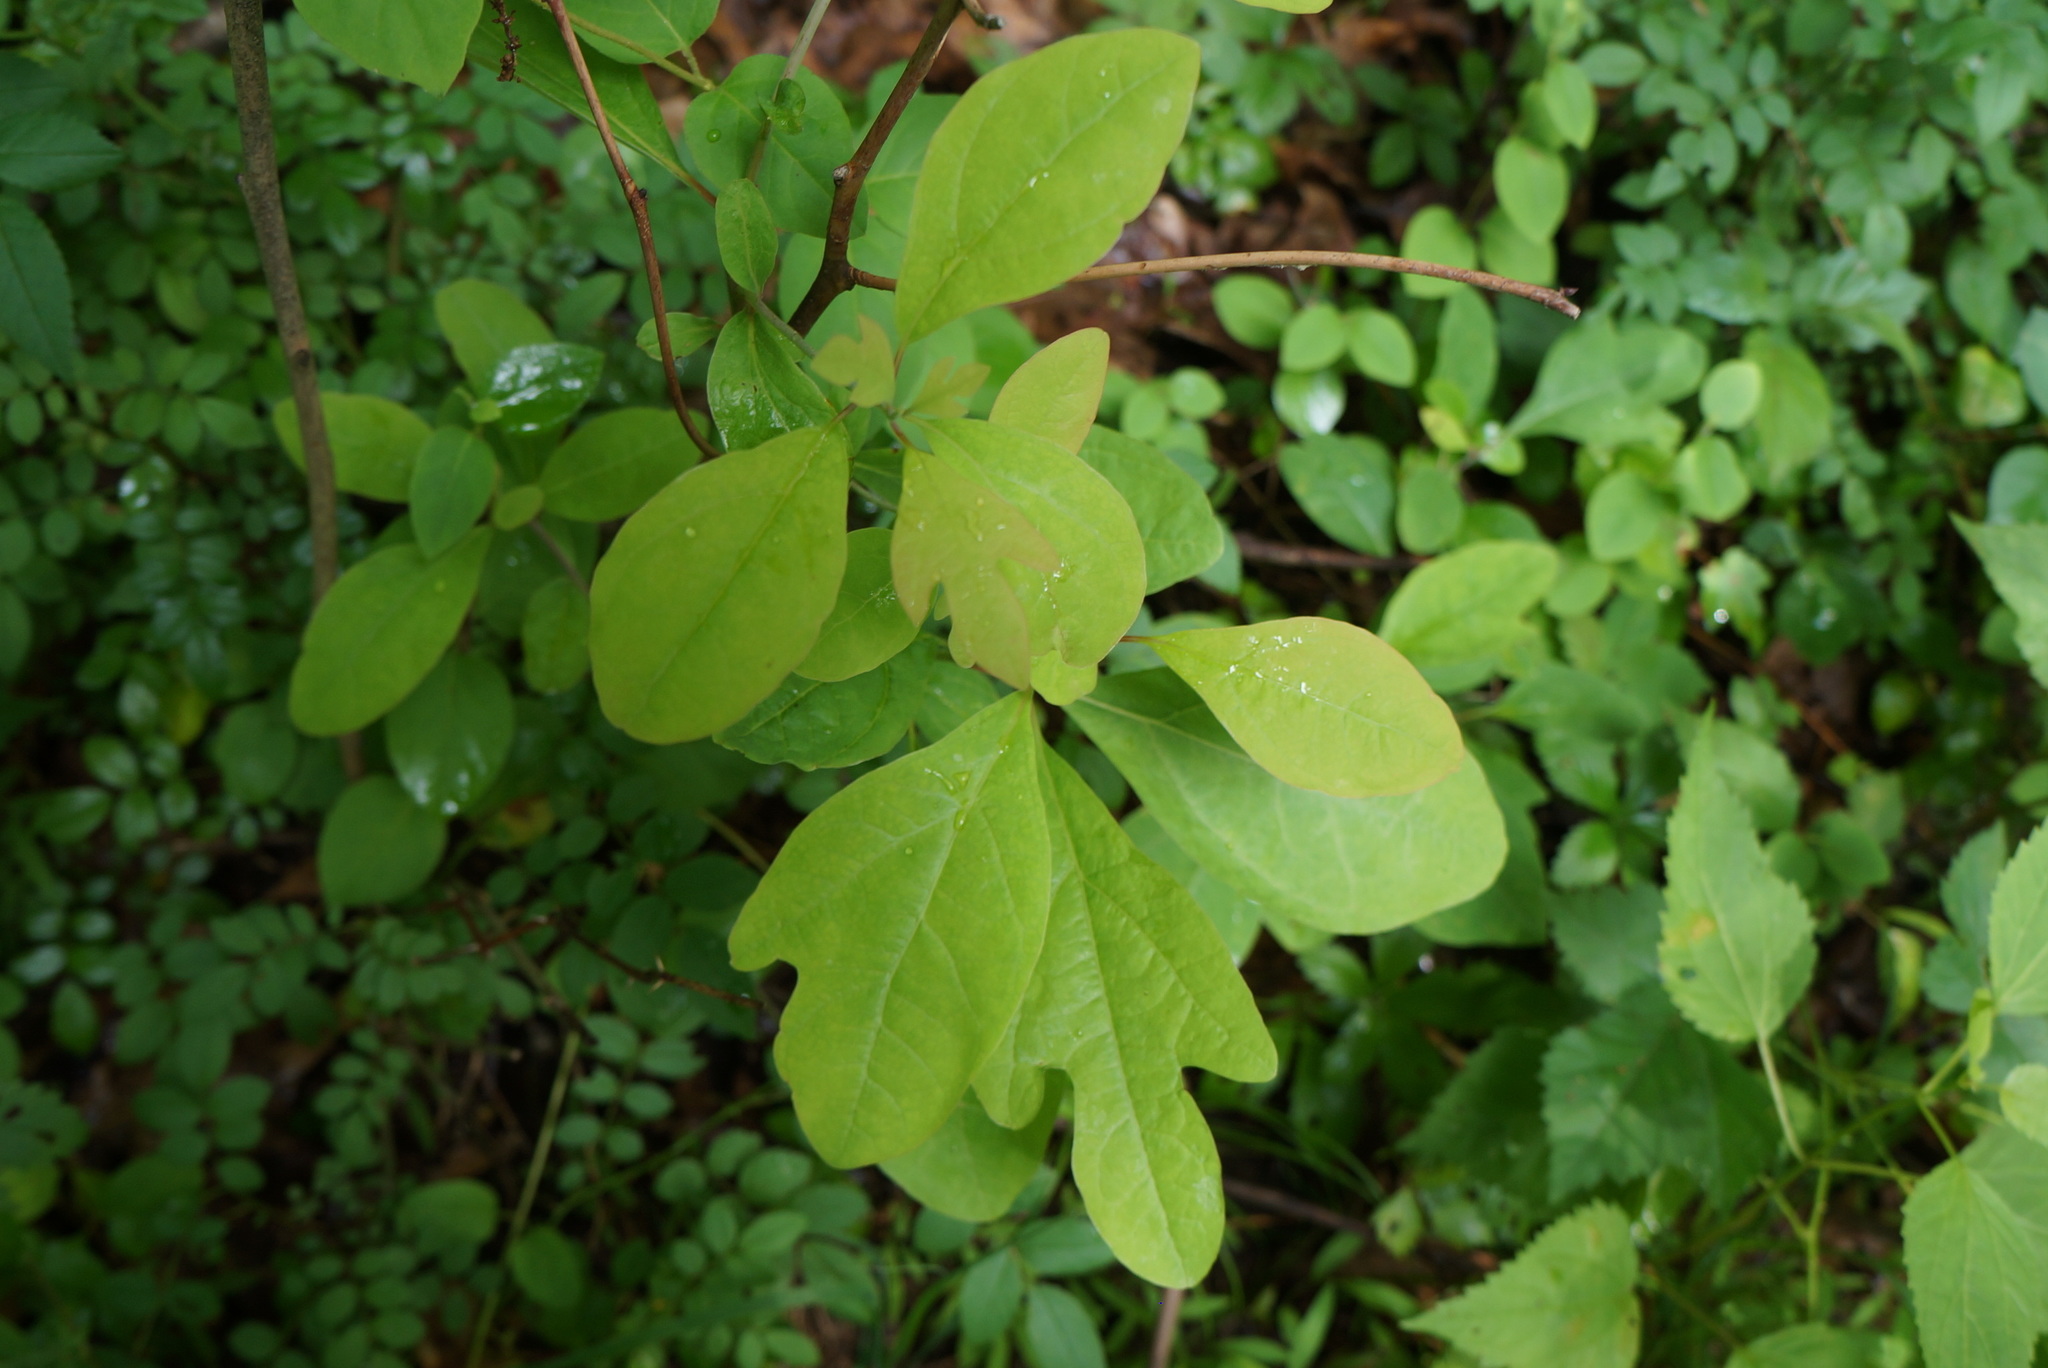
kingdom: Plantae
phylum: Tracheophyta
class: Magnoliopsida
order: Laurales
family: Lauraceae
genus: Sassafras
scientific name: Sassafras albidum
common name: Sassafras
